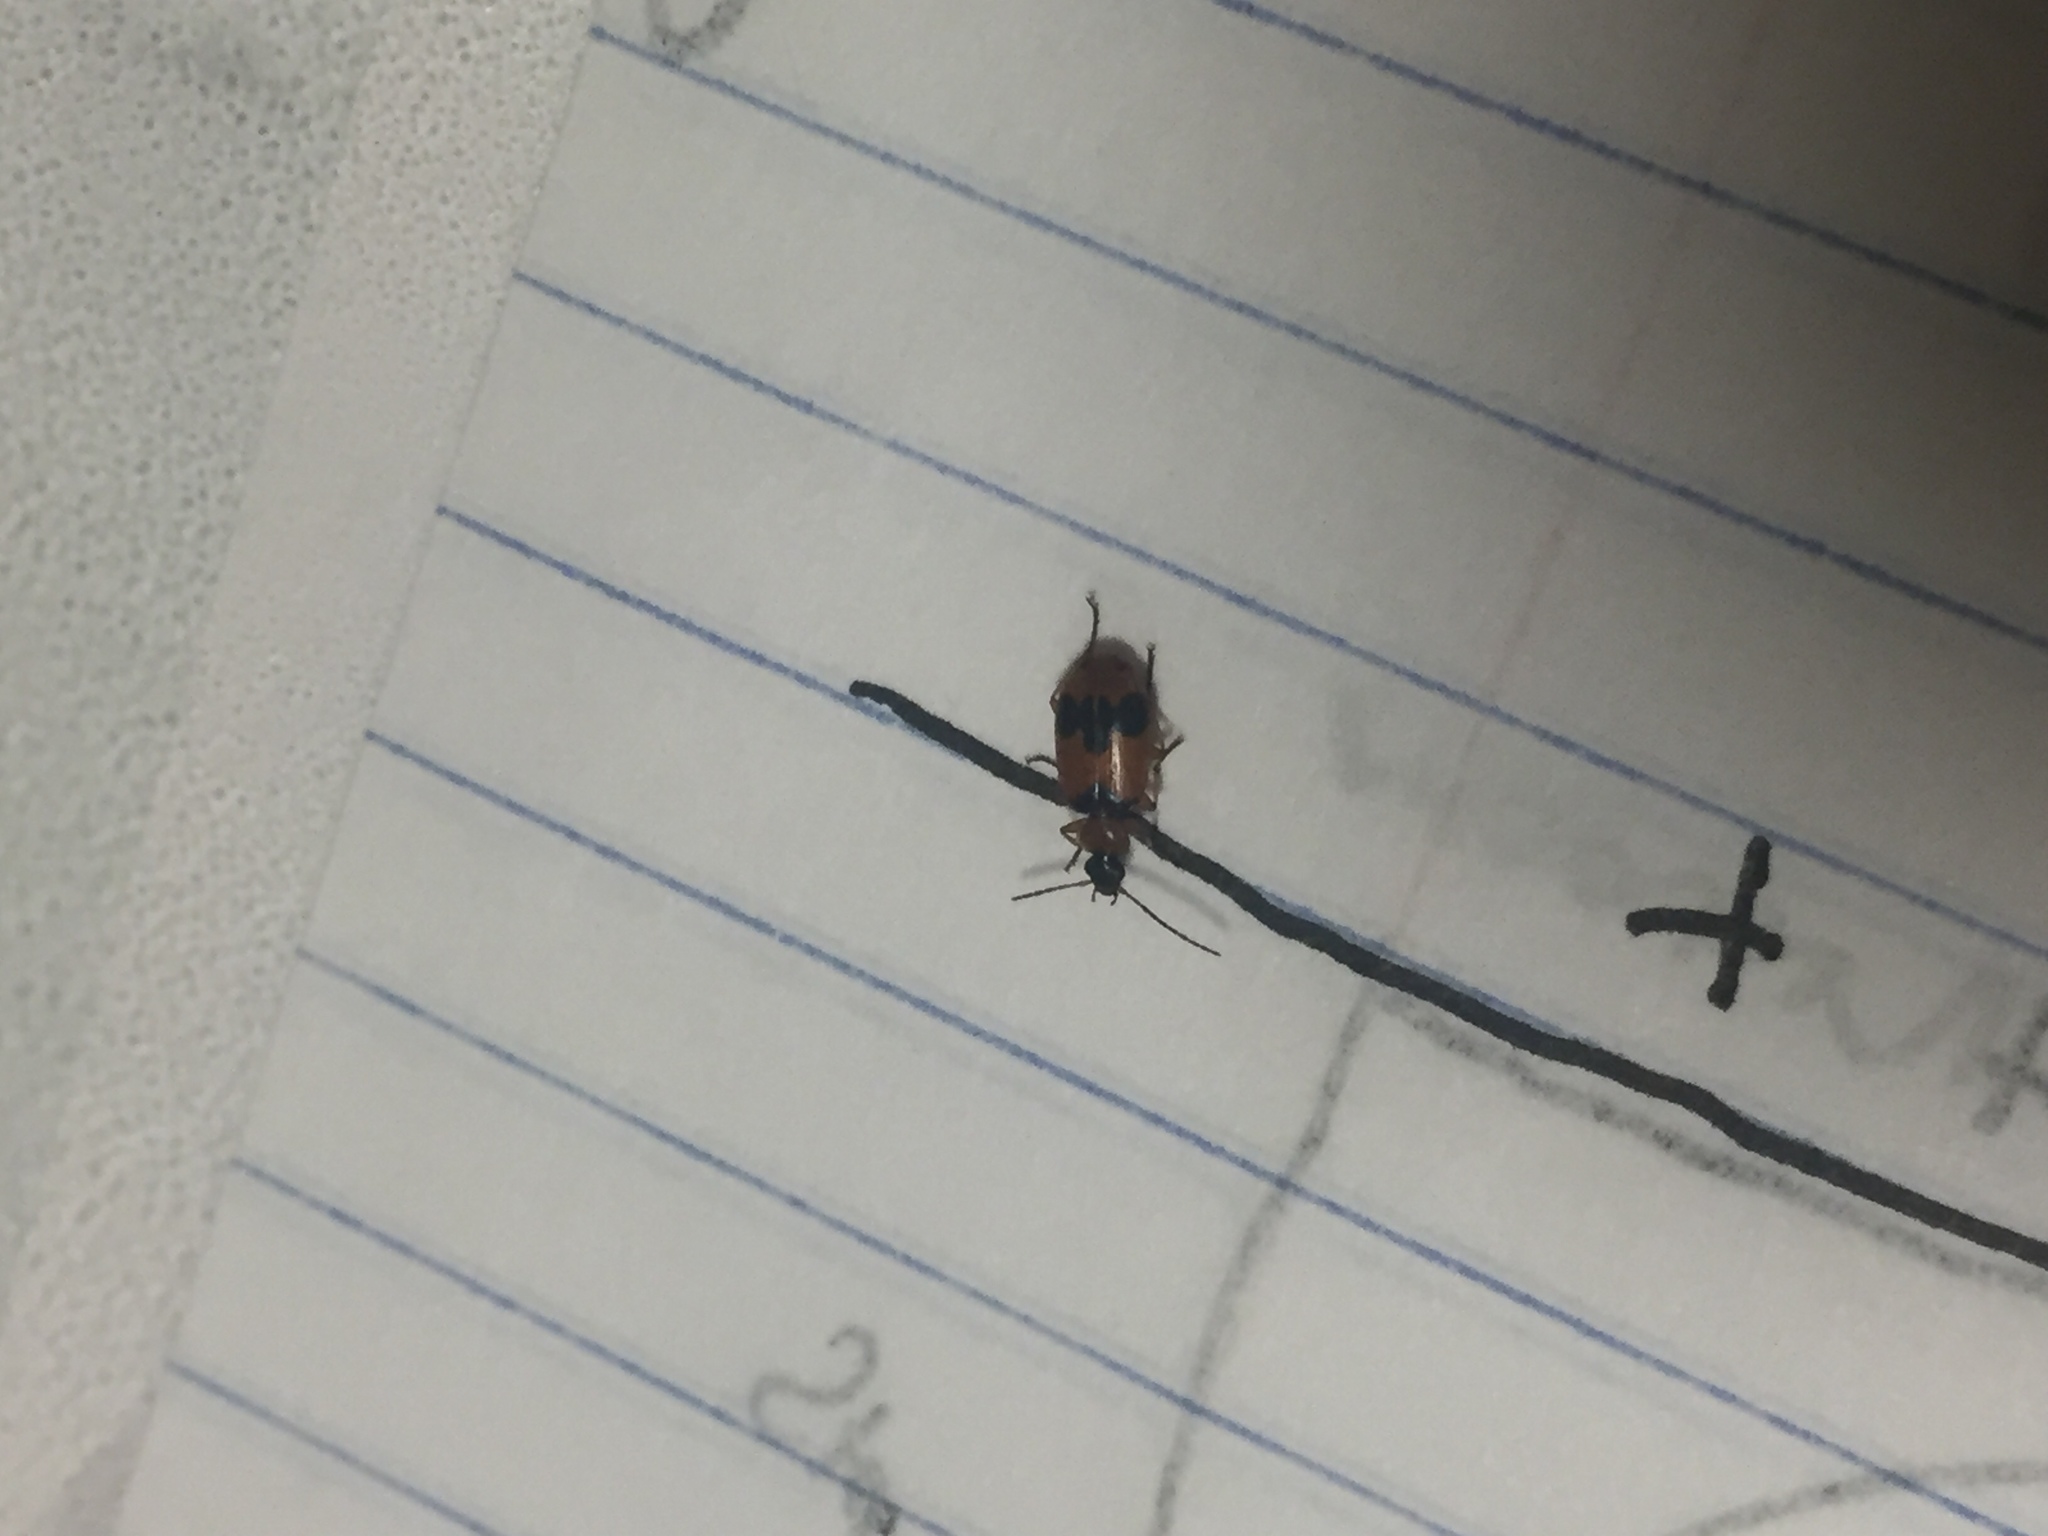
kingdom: Animalia
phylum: Arthropoda
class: Insecta
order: Coleoptera
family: Carabidae
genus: Lebia
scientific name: Lebia pulchella
